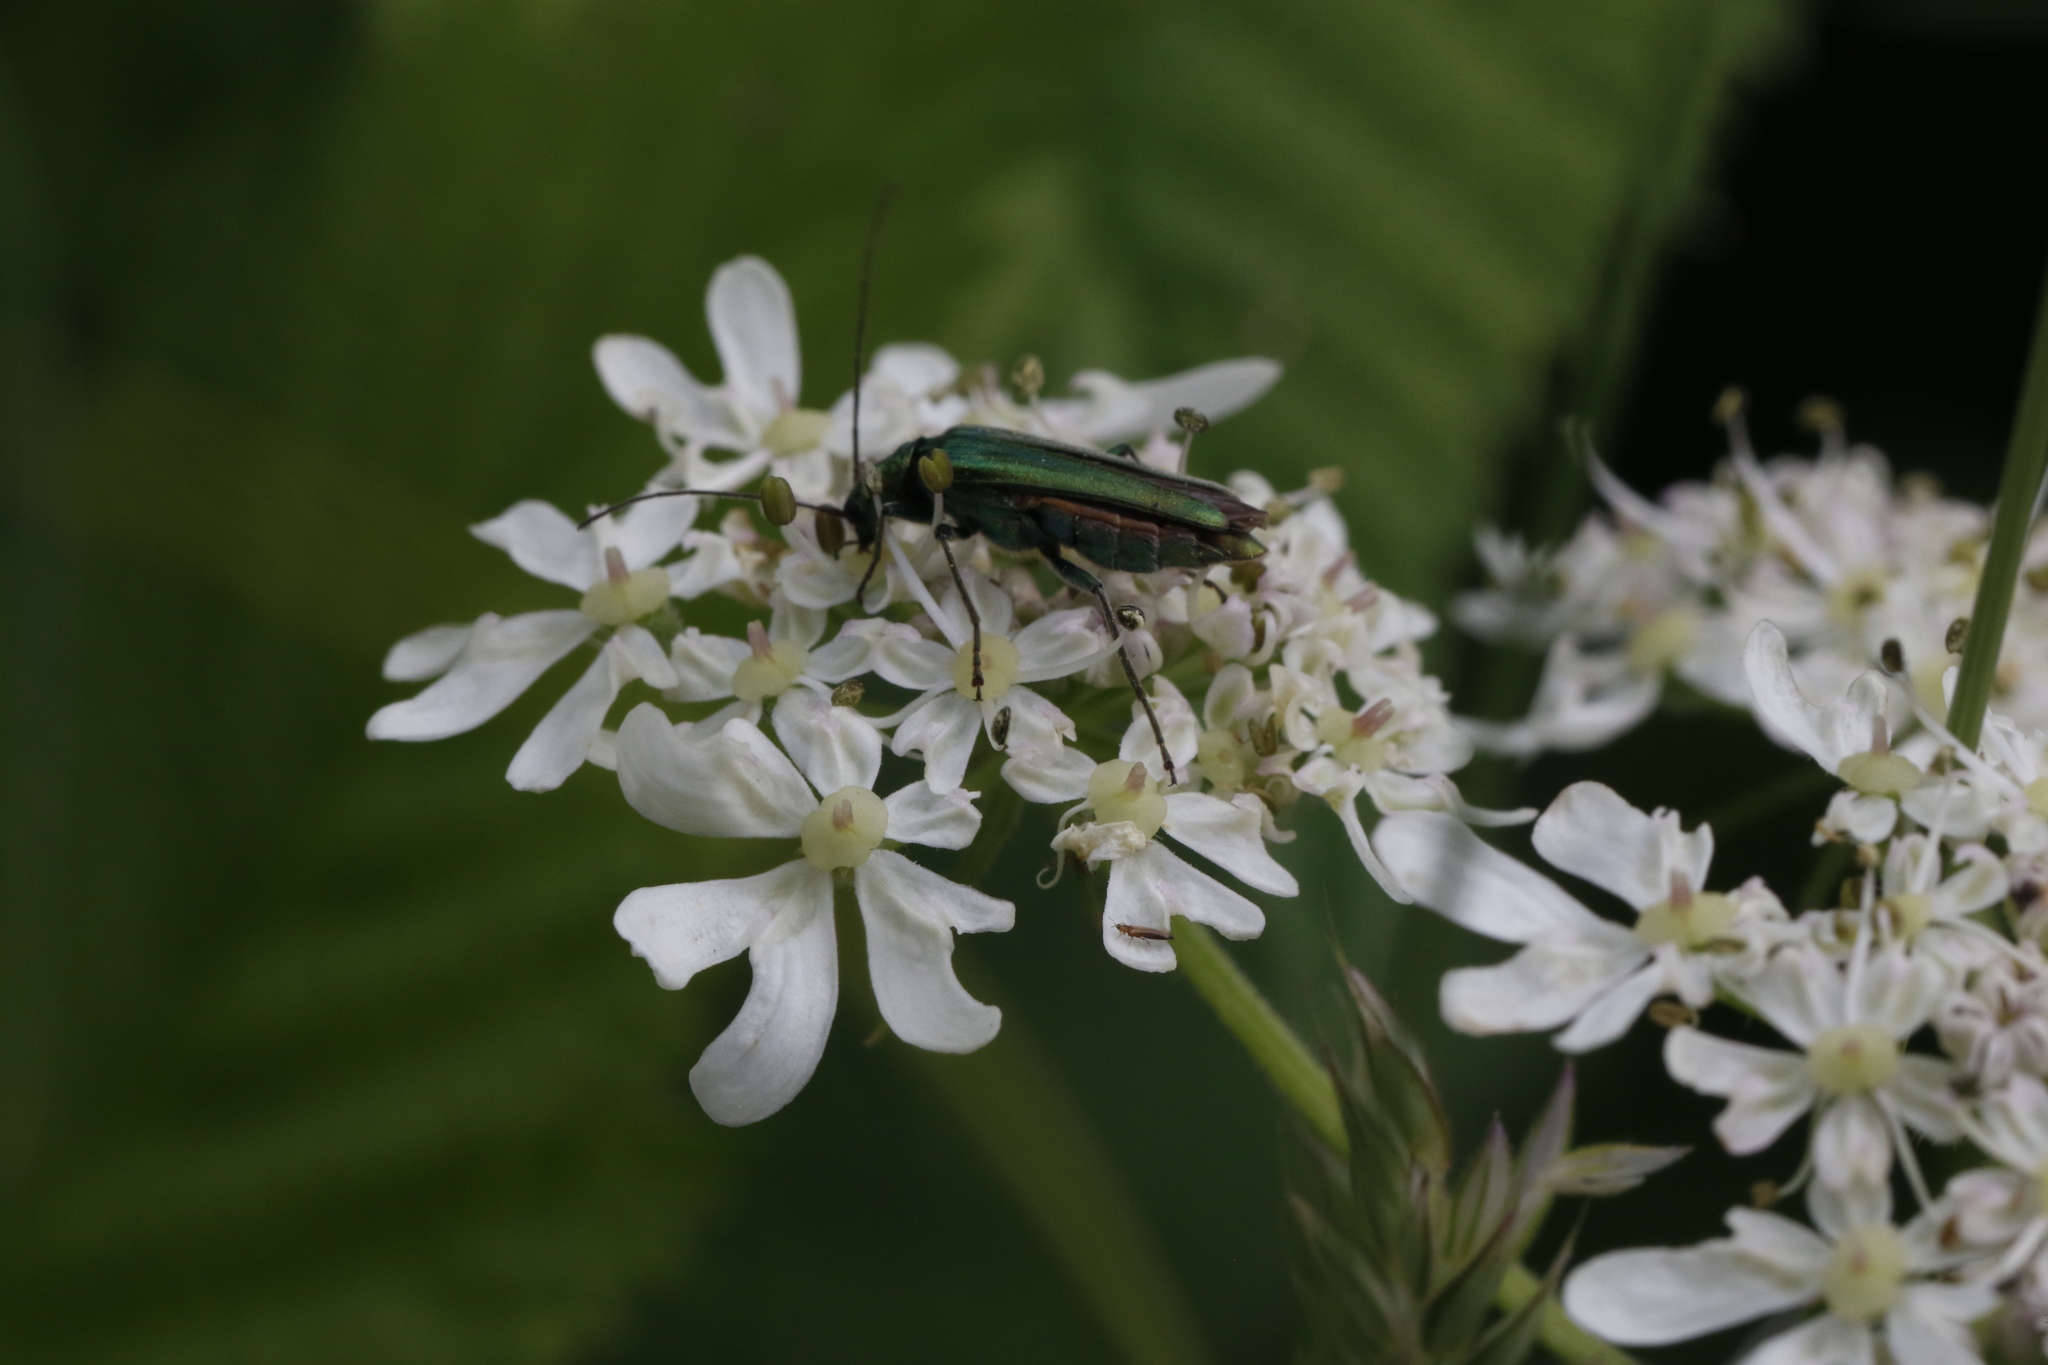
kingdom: Animalia
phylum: Arthropoda
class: Insecta
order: Coleoptera
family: Oedemeridae
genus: Oedemera
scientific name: Oedemera nobilis
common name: Swollen-thighed beetle
